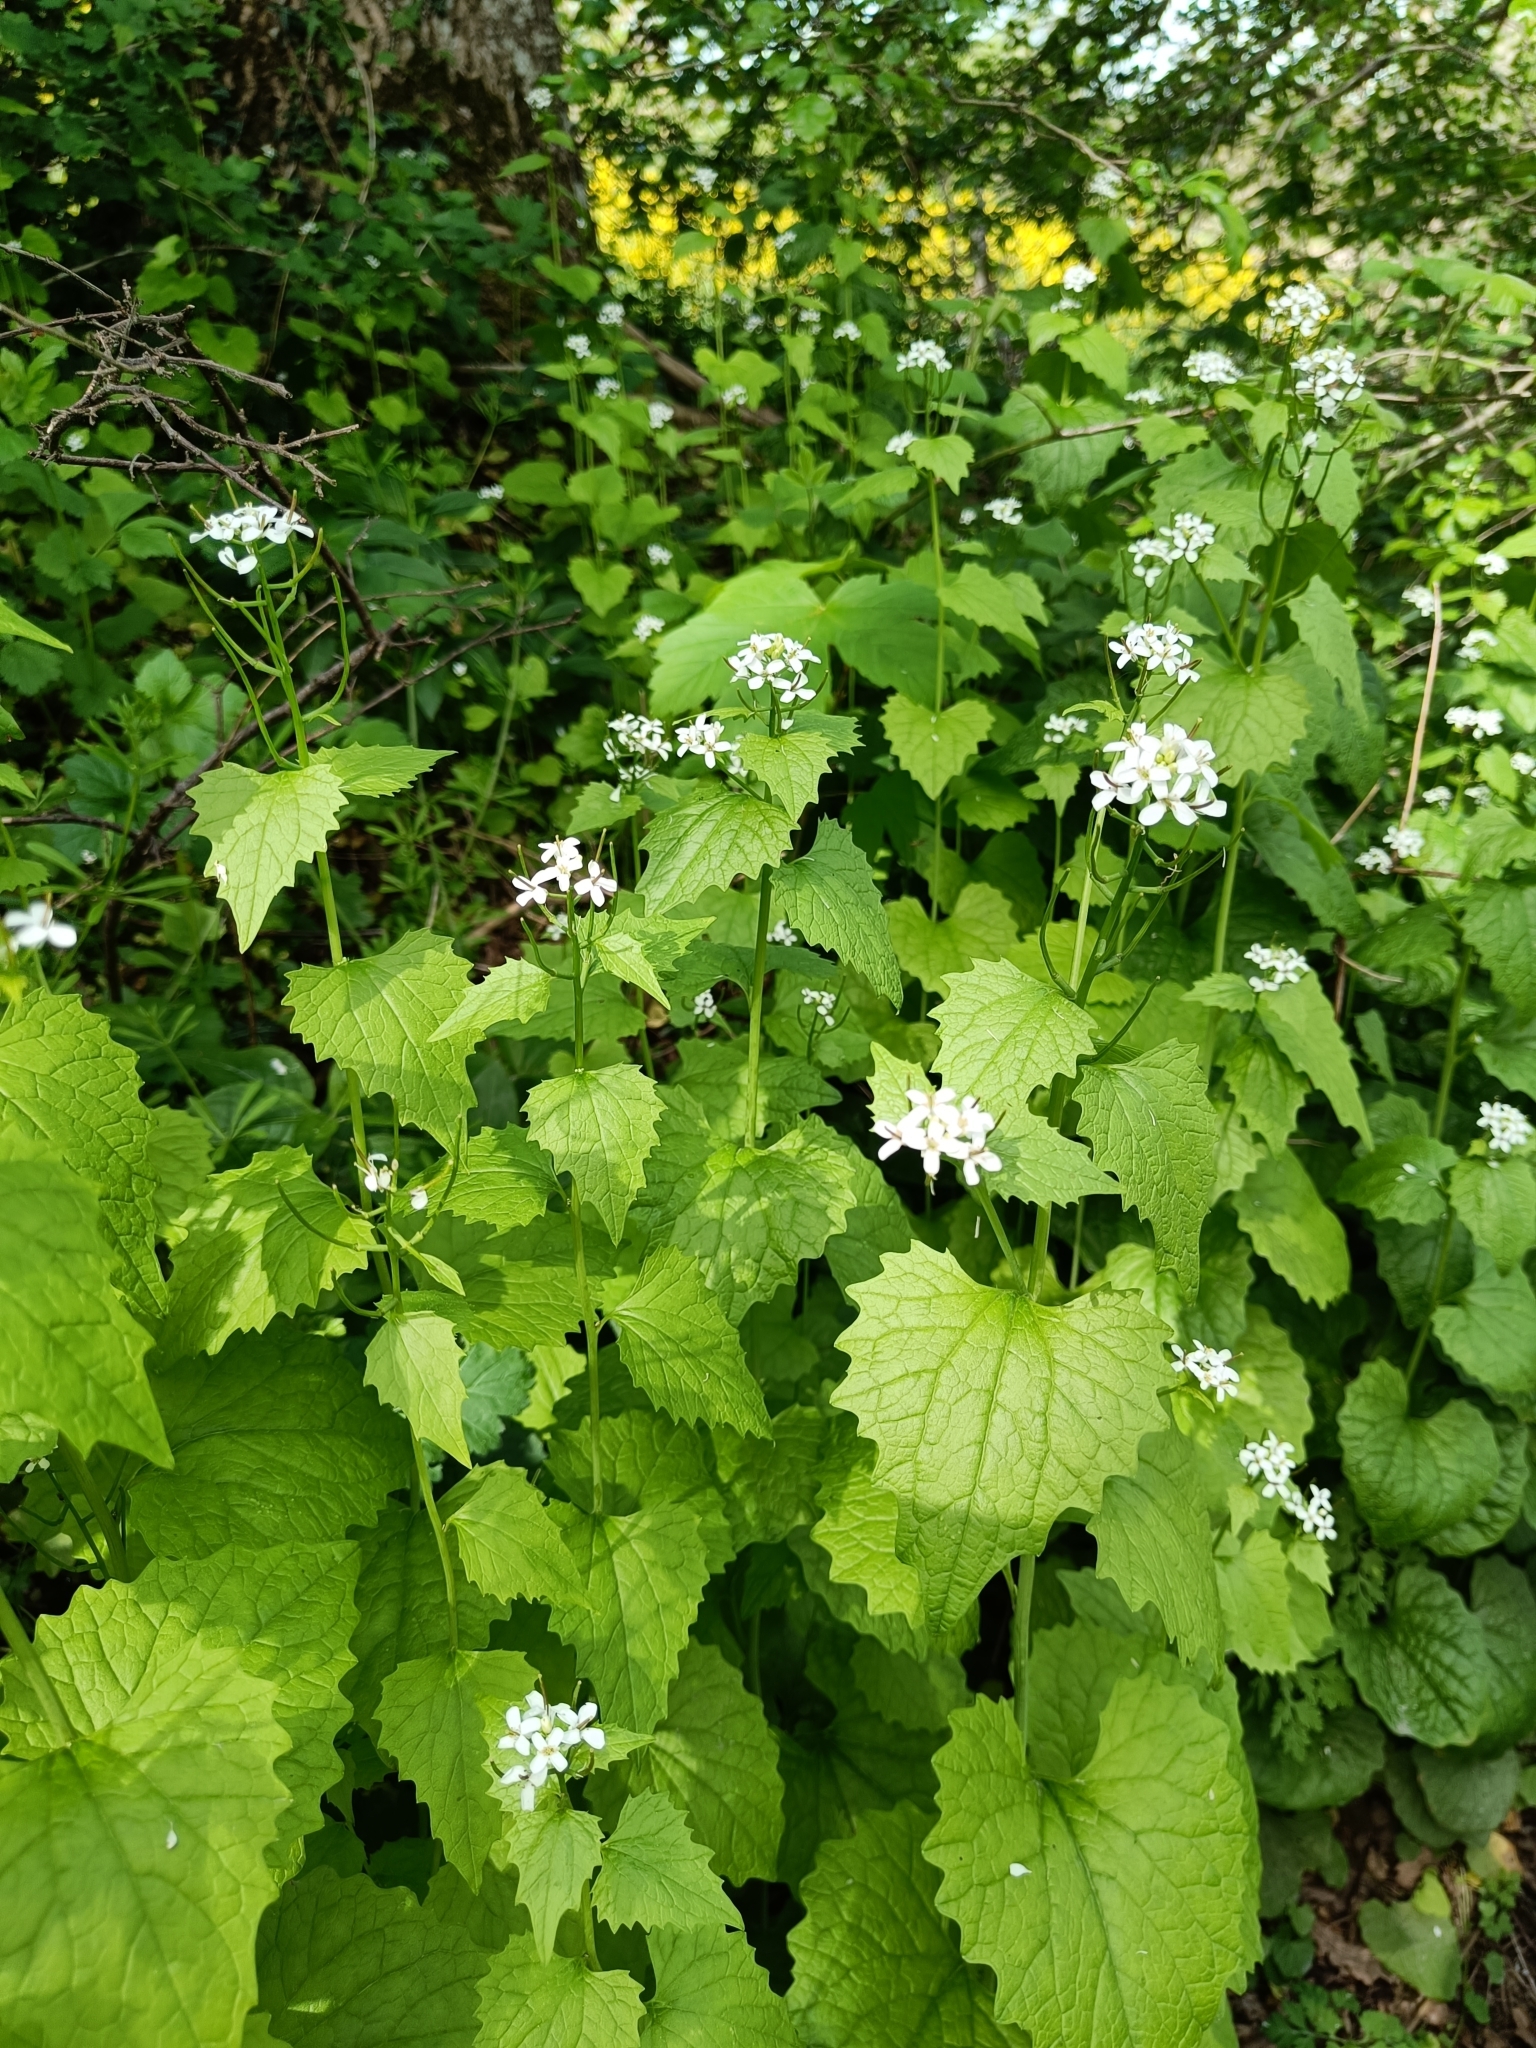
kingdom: Plantae
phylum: Tracheophyta
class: Magnoliopsida
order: Brassicales
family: Brassicaceae
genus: Alliaria
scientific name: Alliaria petiolata
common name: Garlic mustard
